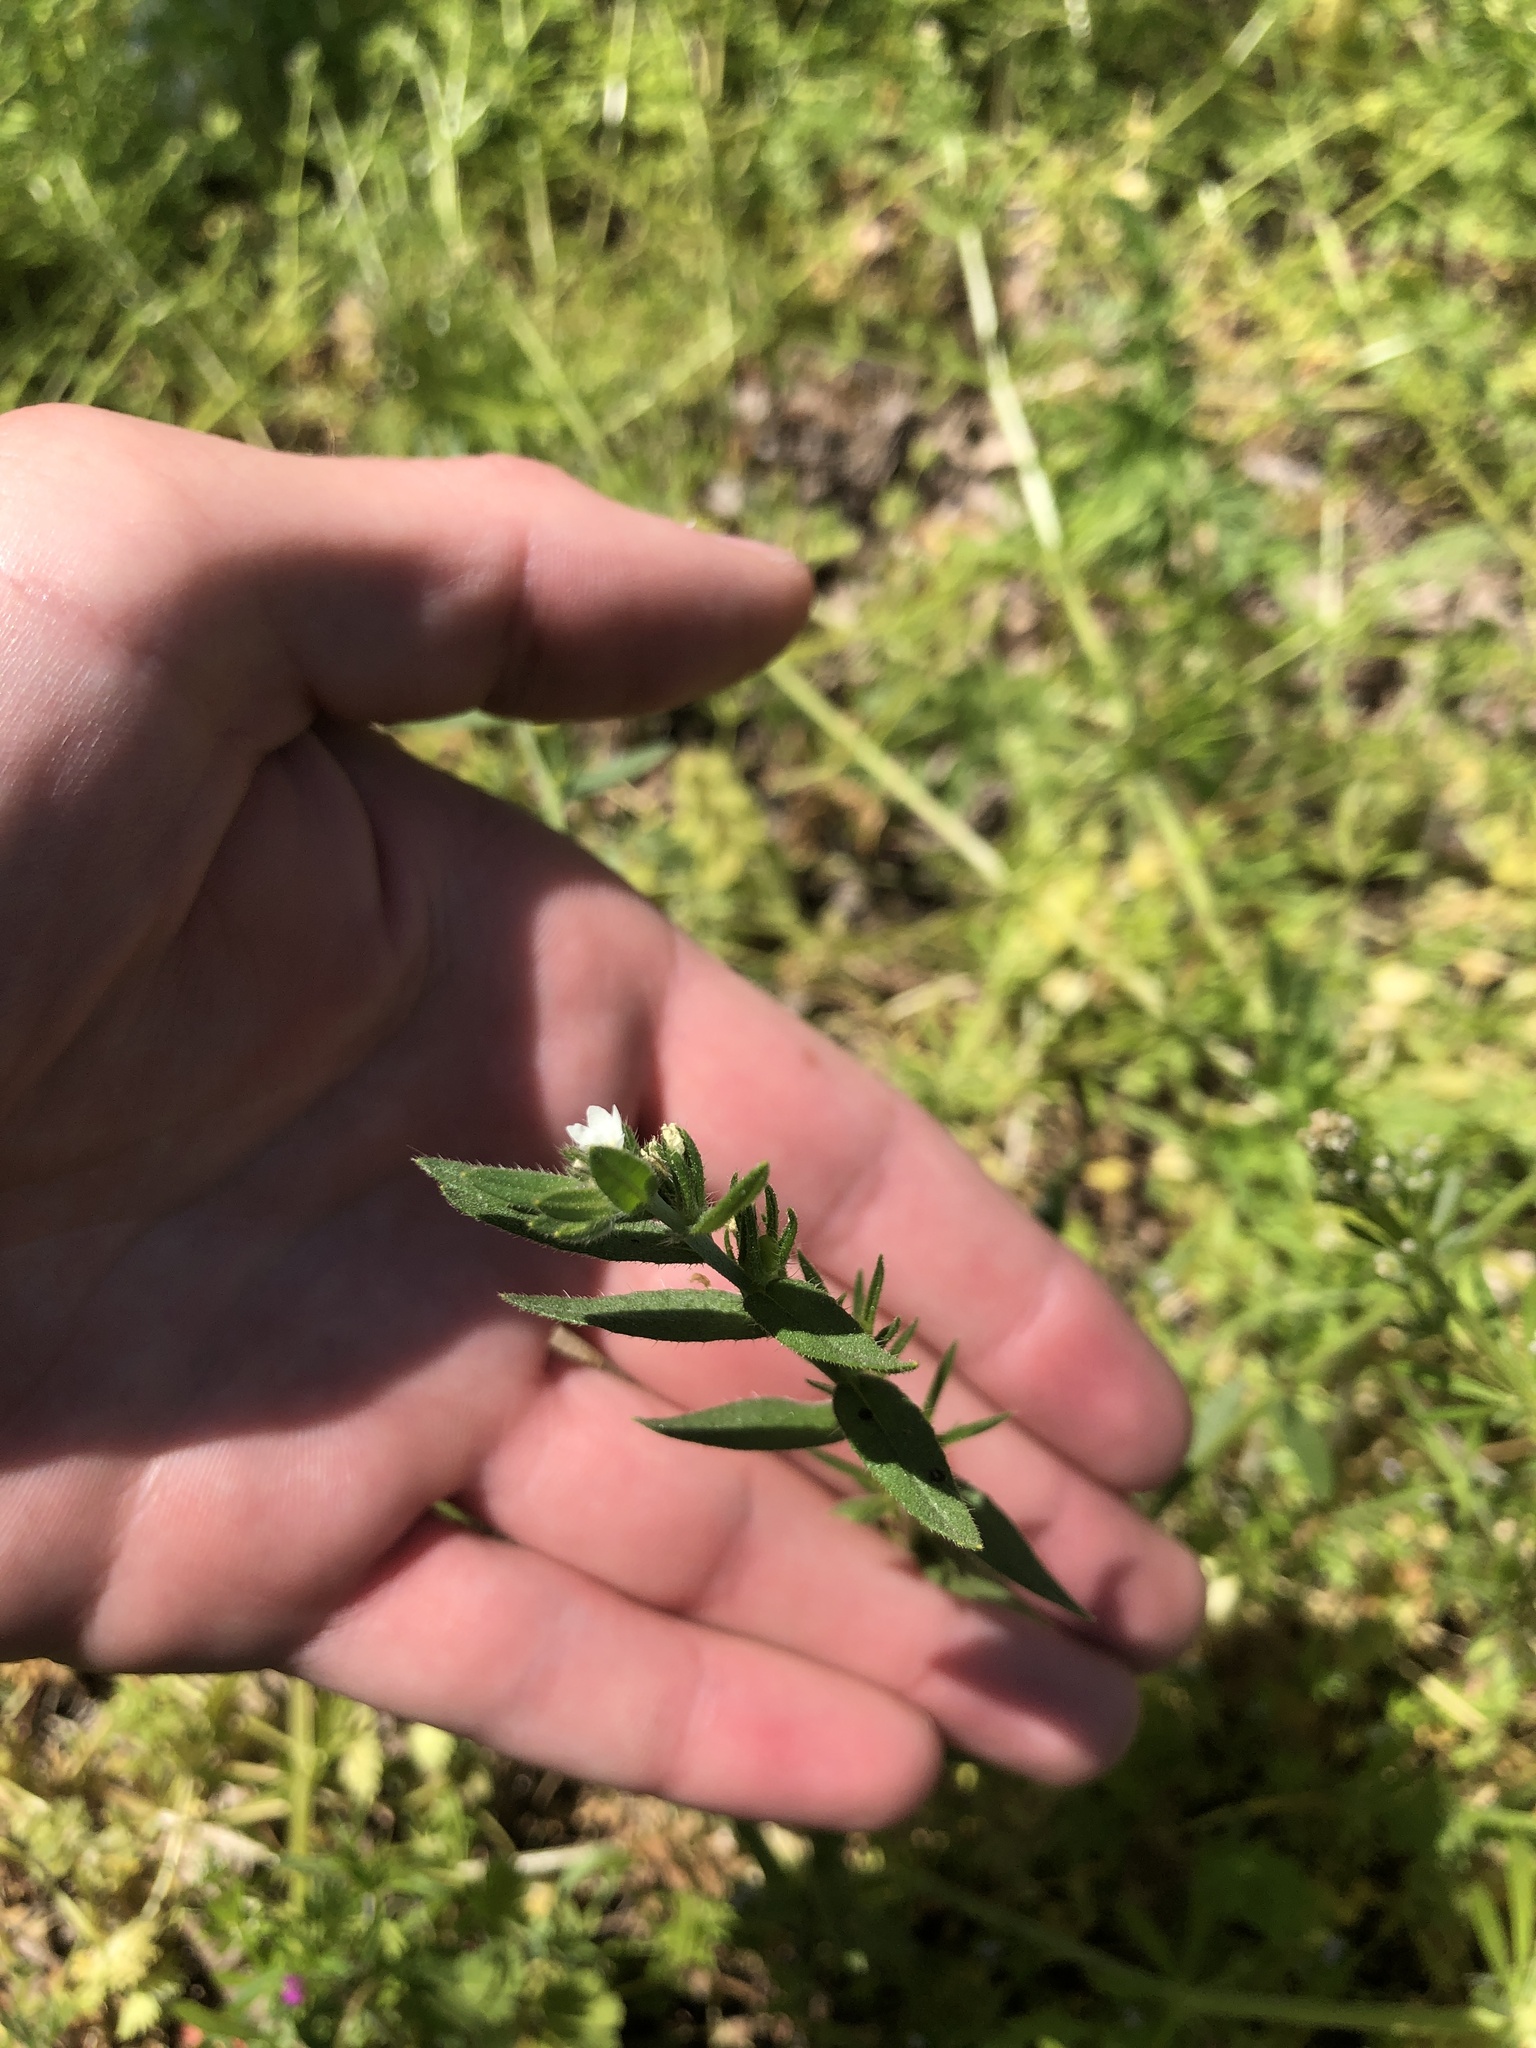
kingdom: Plantae
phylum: Tracheophyta
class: Magnoliopsida
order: Boraginales
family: Boraginaceae
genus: Buglossoides
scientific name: Buglossoides arvensis
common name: Corn gromwell
